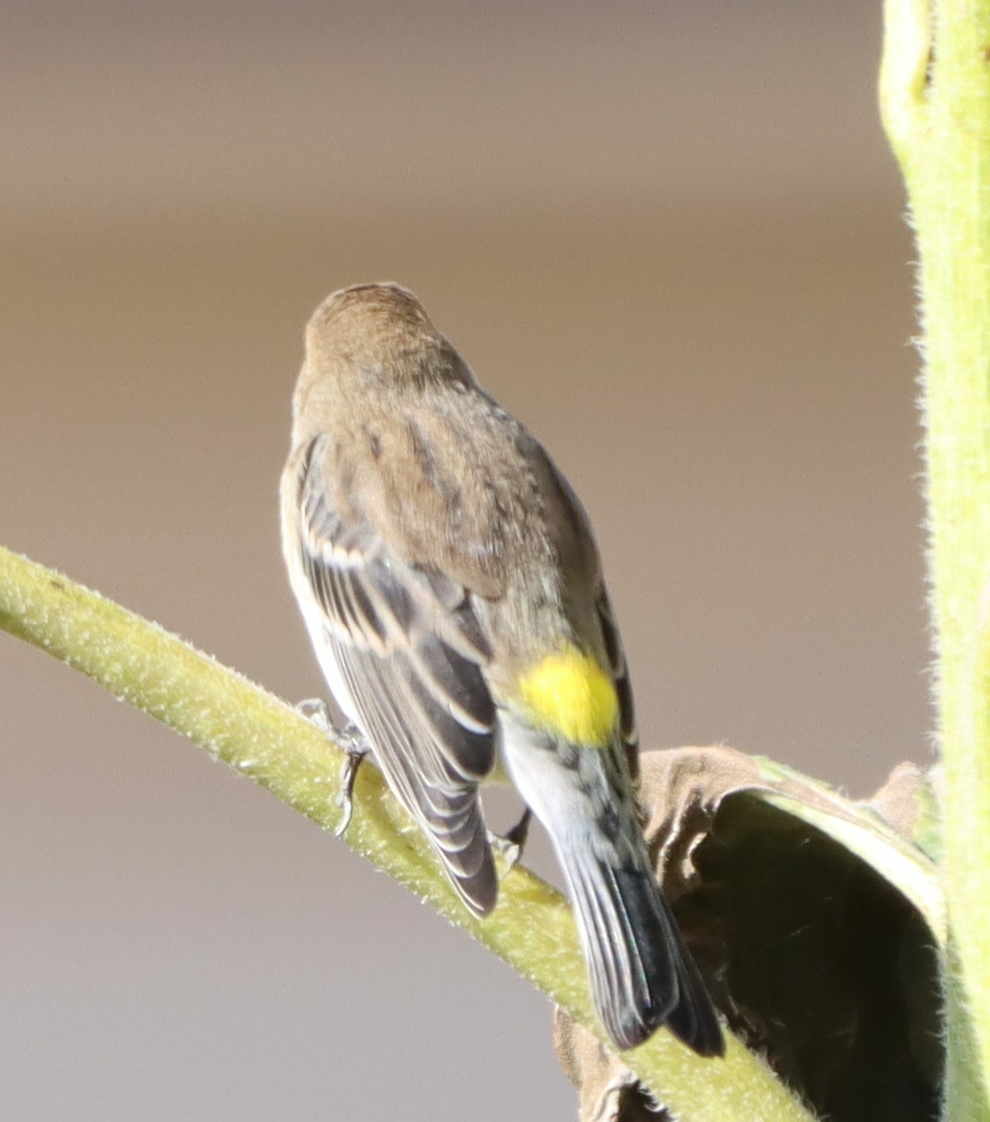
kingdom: Animalia
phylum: Chordata
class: Aves
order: Passeriformes
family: Parulidae
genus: Setophaga
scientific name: Setophaga coronata
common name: Myrtle warbler
